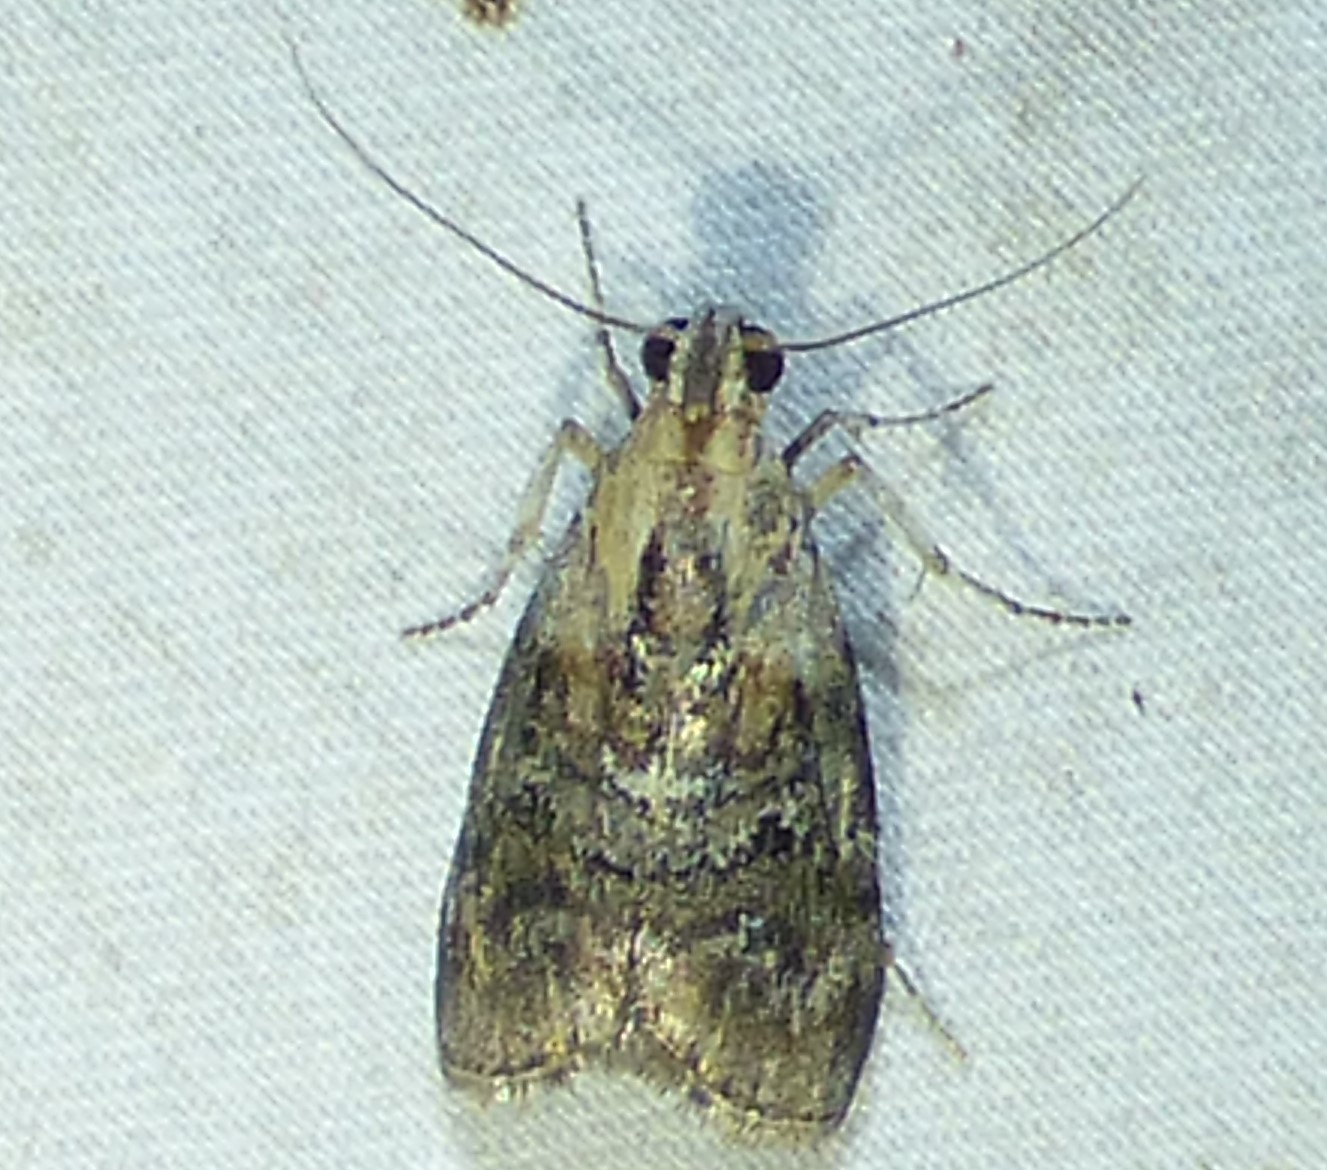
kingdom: Animalia
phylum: Arthropoda
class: Insecta
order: Lepidoptera
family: Pyralidae
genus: Pococera
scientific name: Pococera expandens
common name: Striped oak webworm moth
